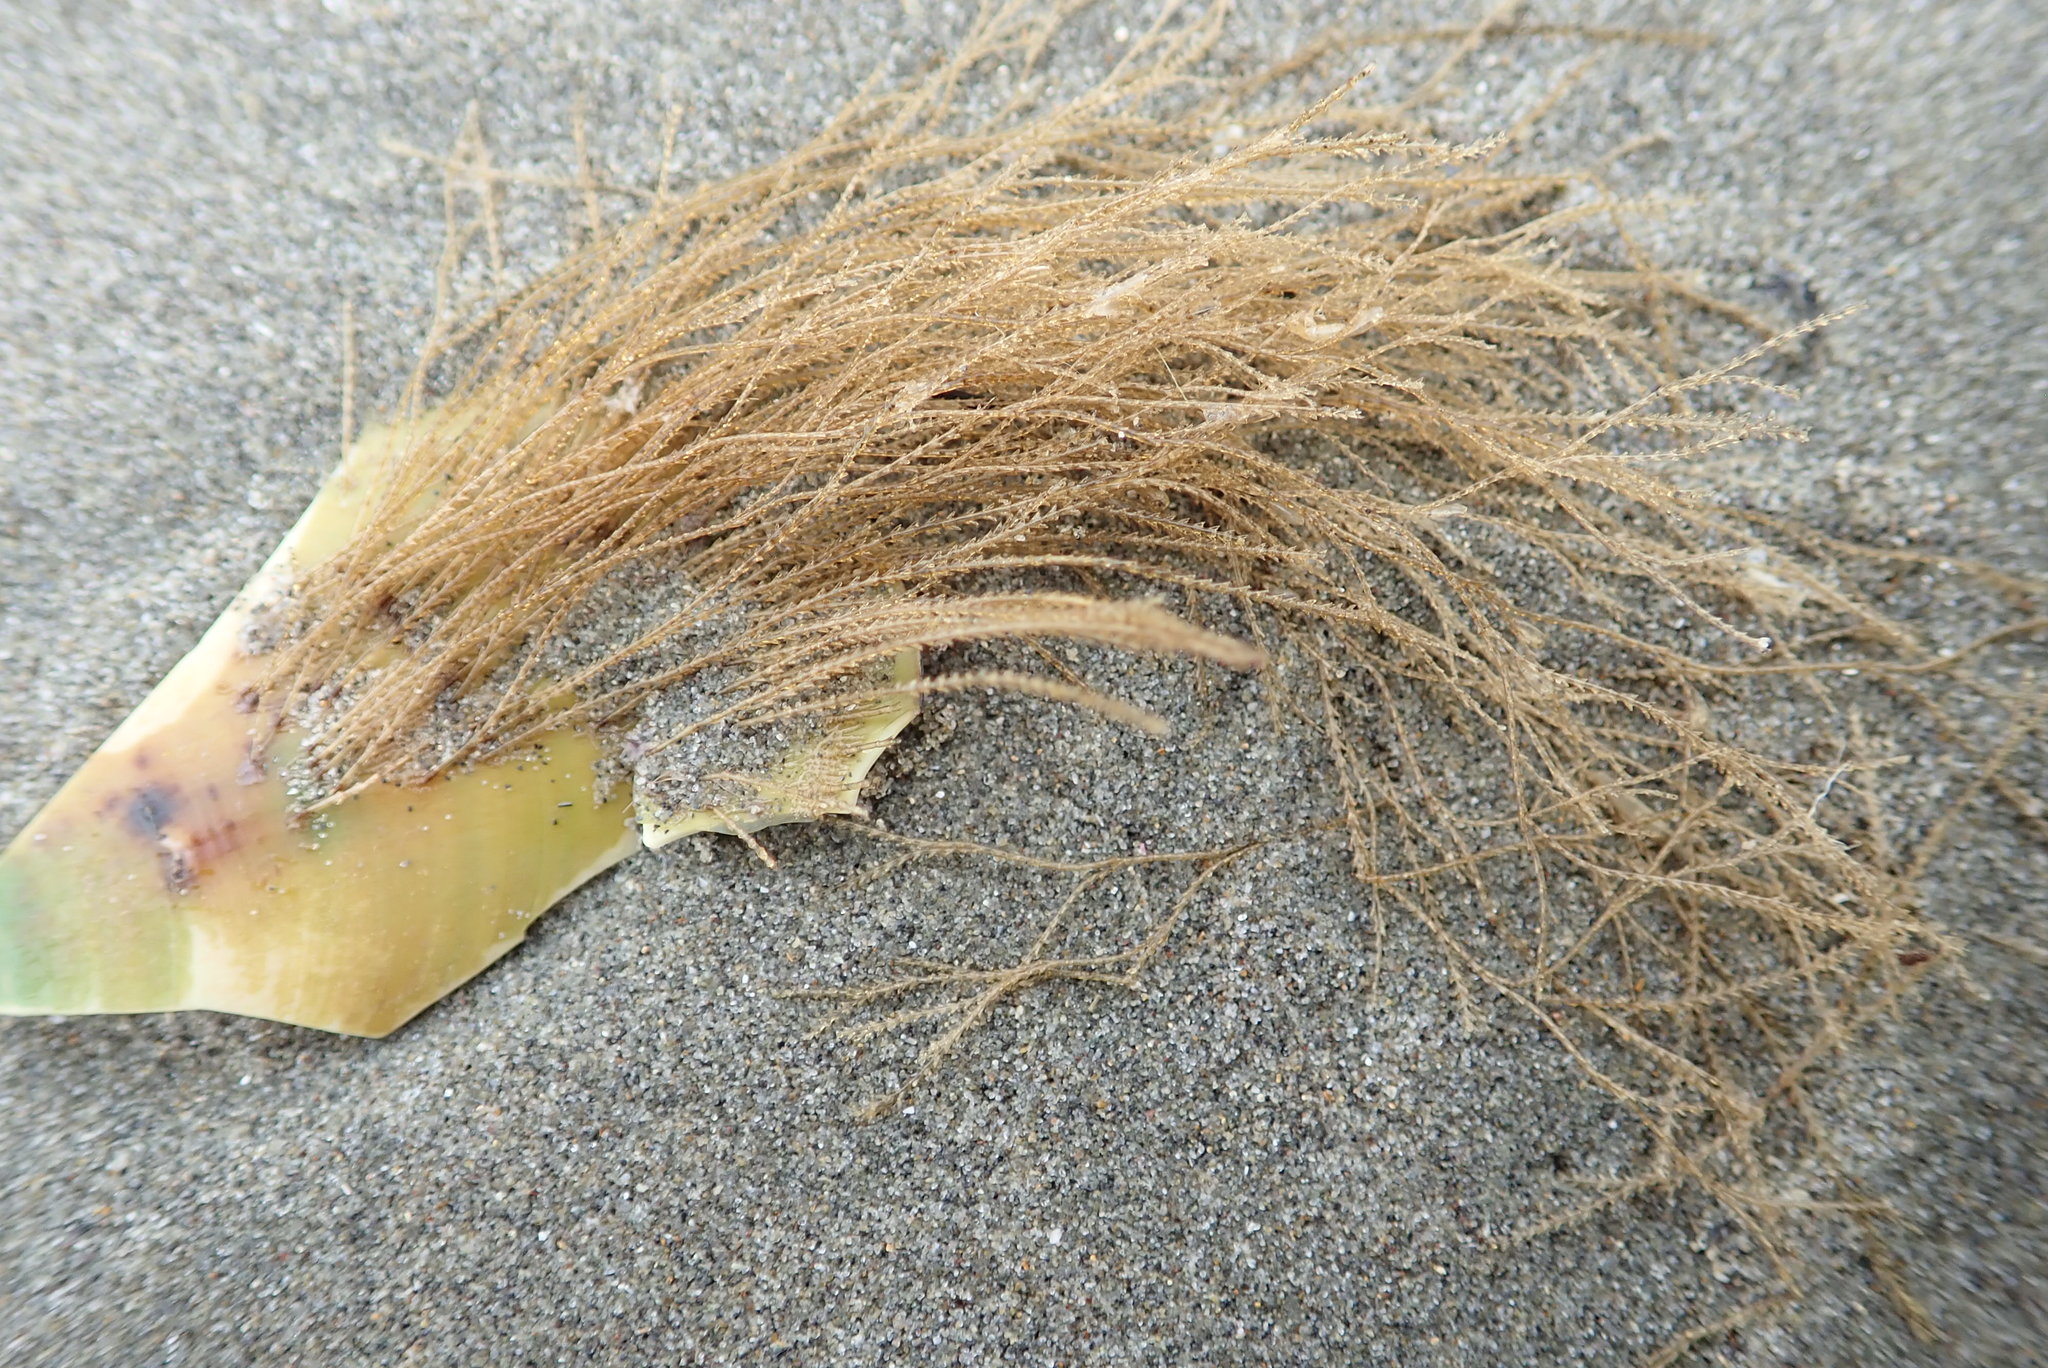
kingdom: Animalia
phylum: Cnidaria
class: Hydrozoa
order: Leptothecata
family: Sertulariidae
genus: Amphisbetia
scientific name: Amphisbetia bispinosa
